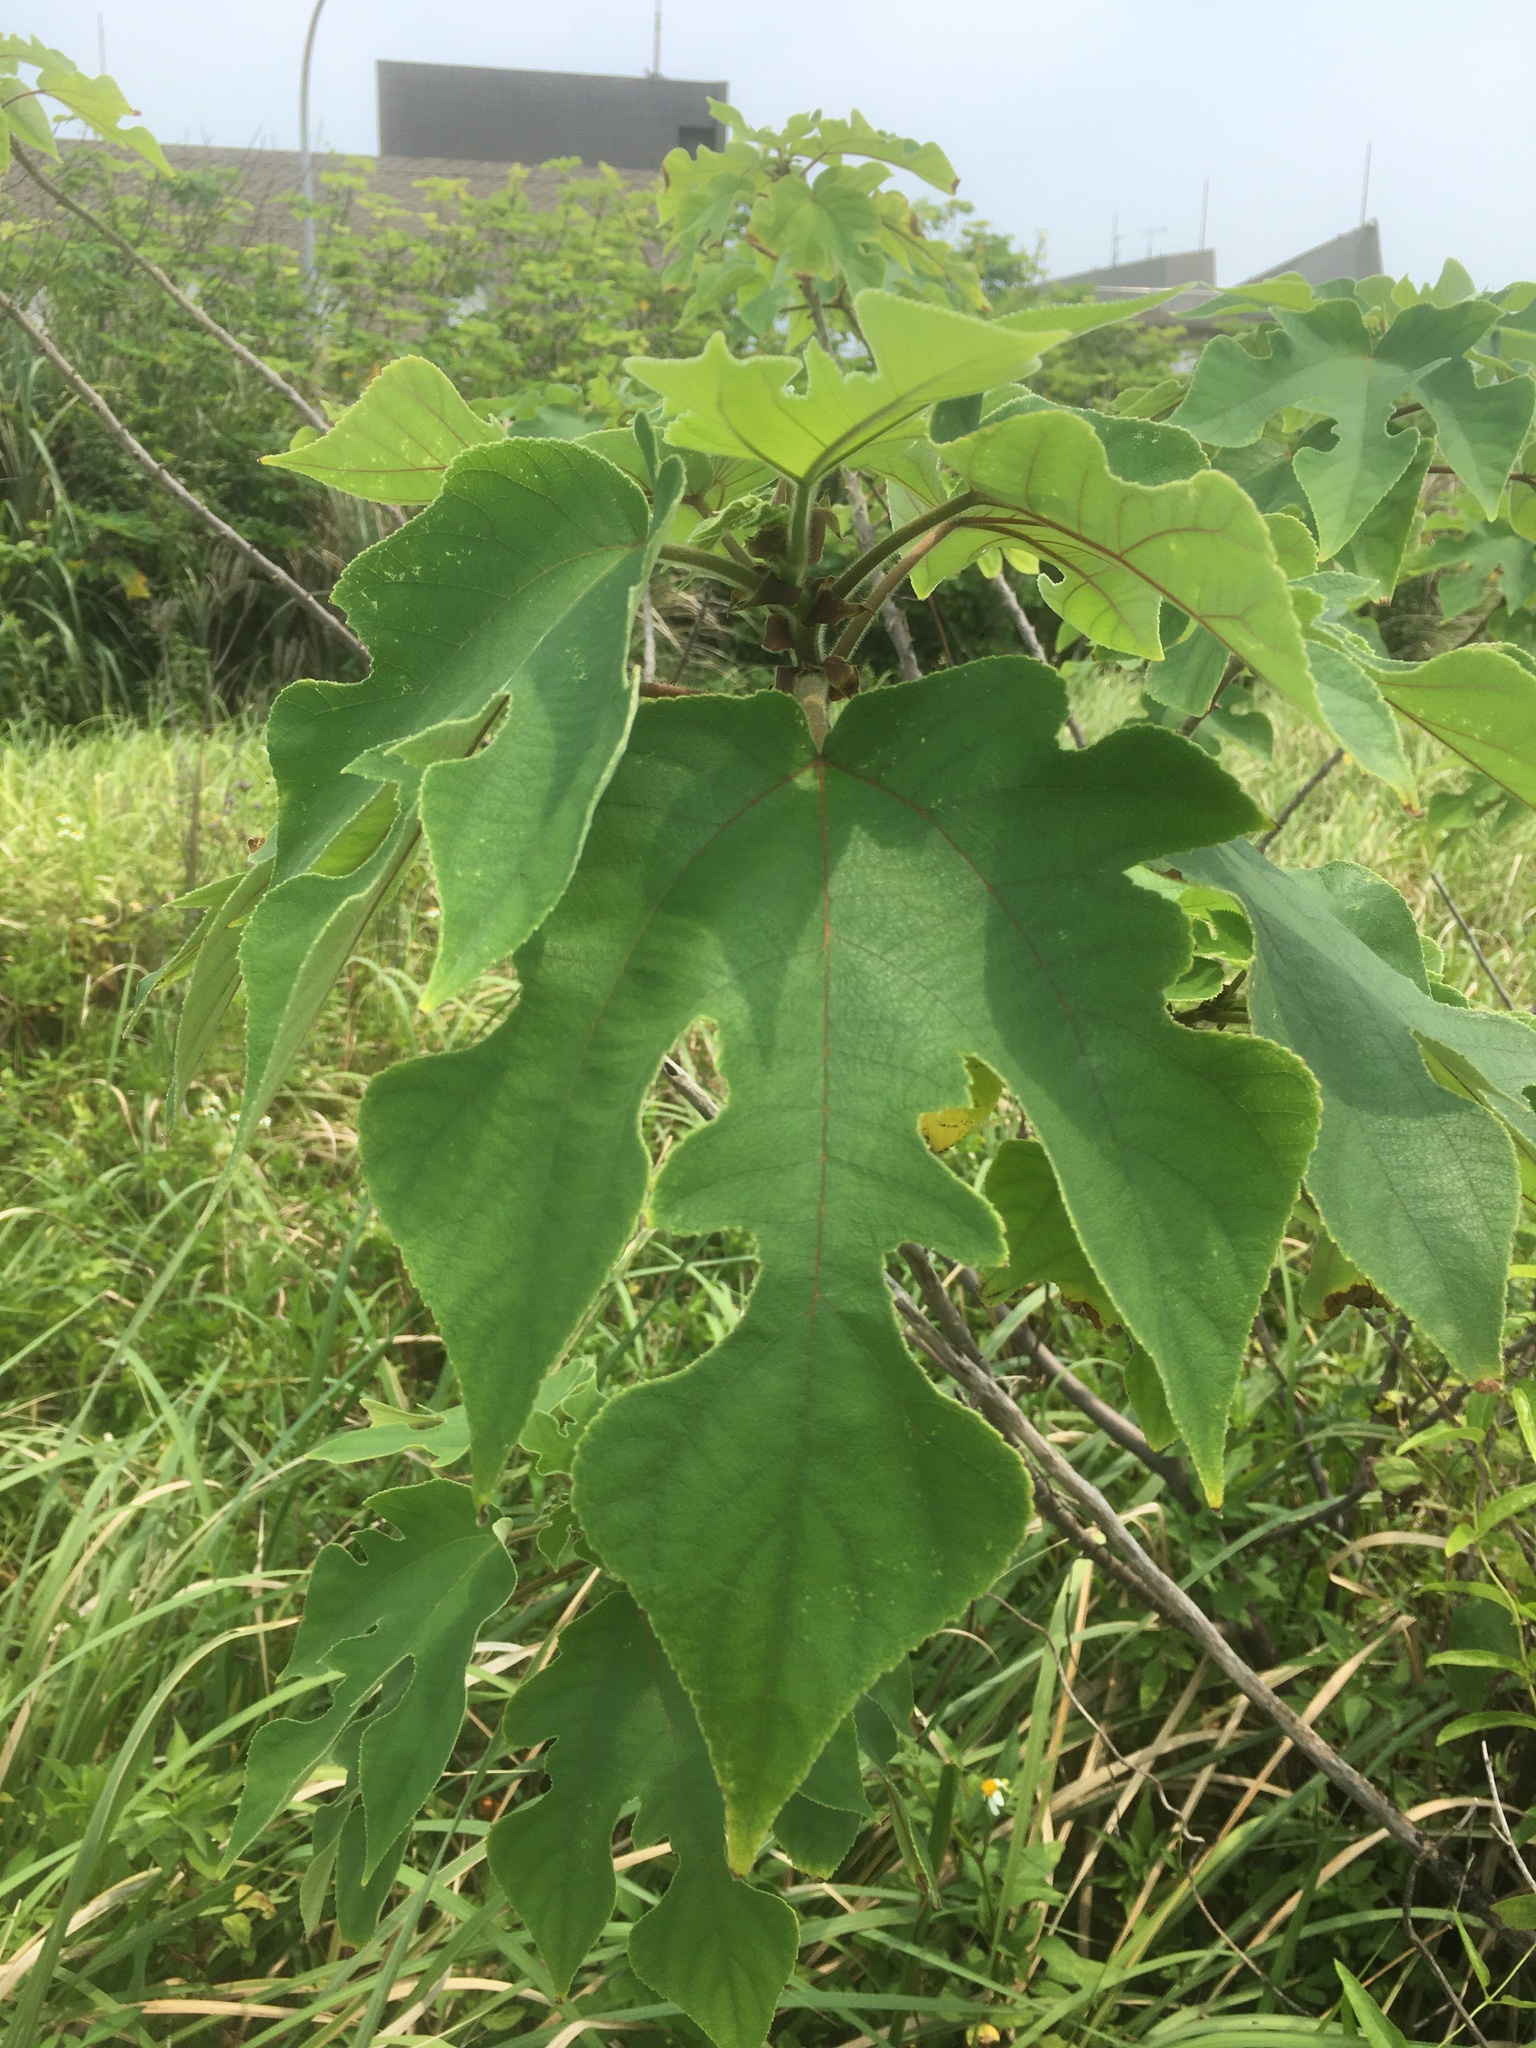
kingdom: Plantae
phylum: Tracheophyta
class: Magnoliopsida
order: Rosales
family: Moraceae
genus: Broussonetia
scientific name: Broussonetia papyrifera
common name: Paper mulberry
